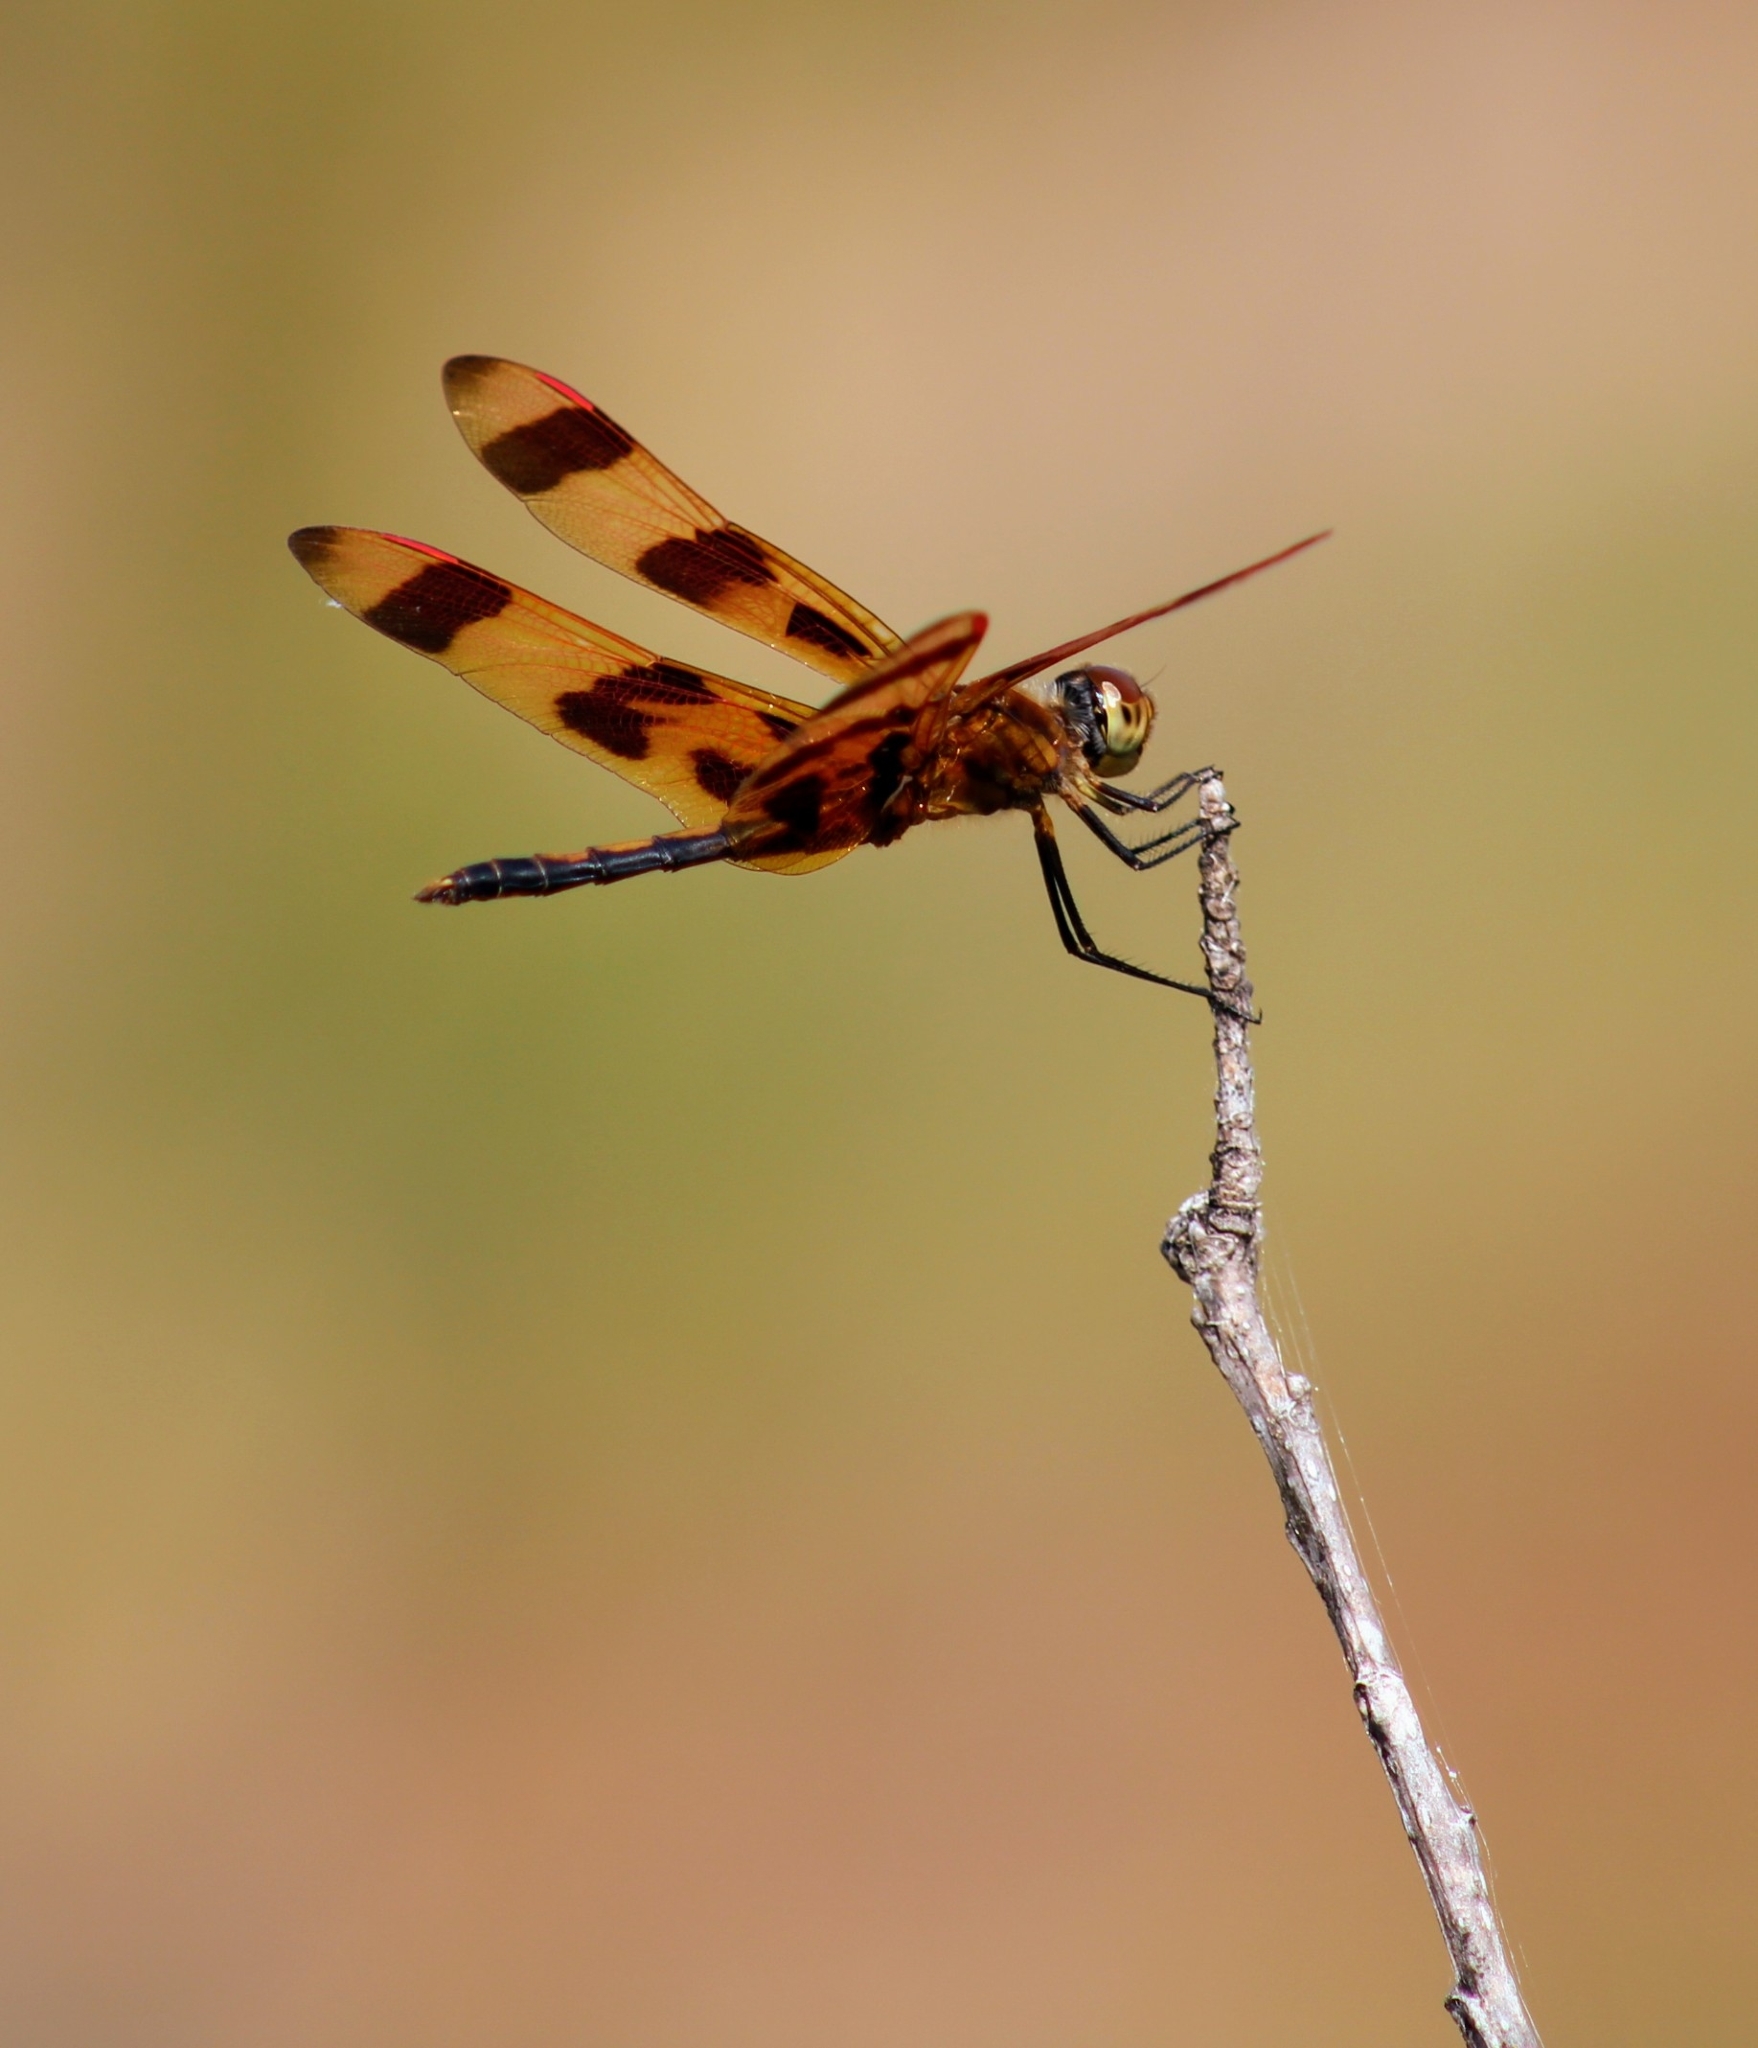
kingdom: Animalia
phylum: Arthropoda
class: Insecta
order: Odonata
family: Libellulidae
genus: Celithemis
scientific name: Celithemis eponina
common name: Halloween pennant
